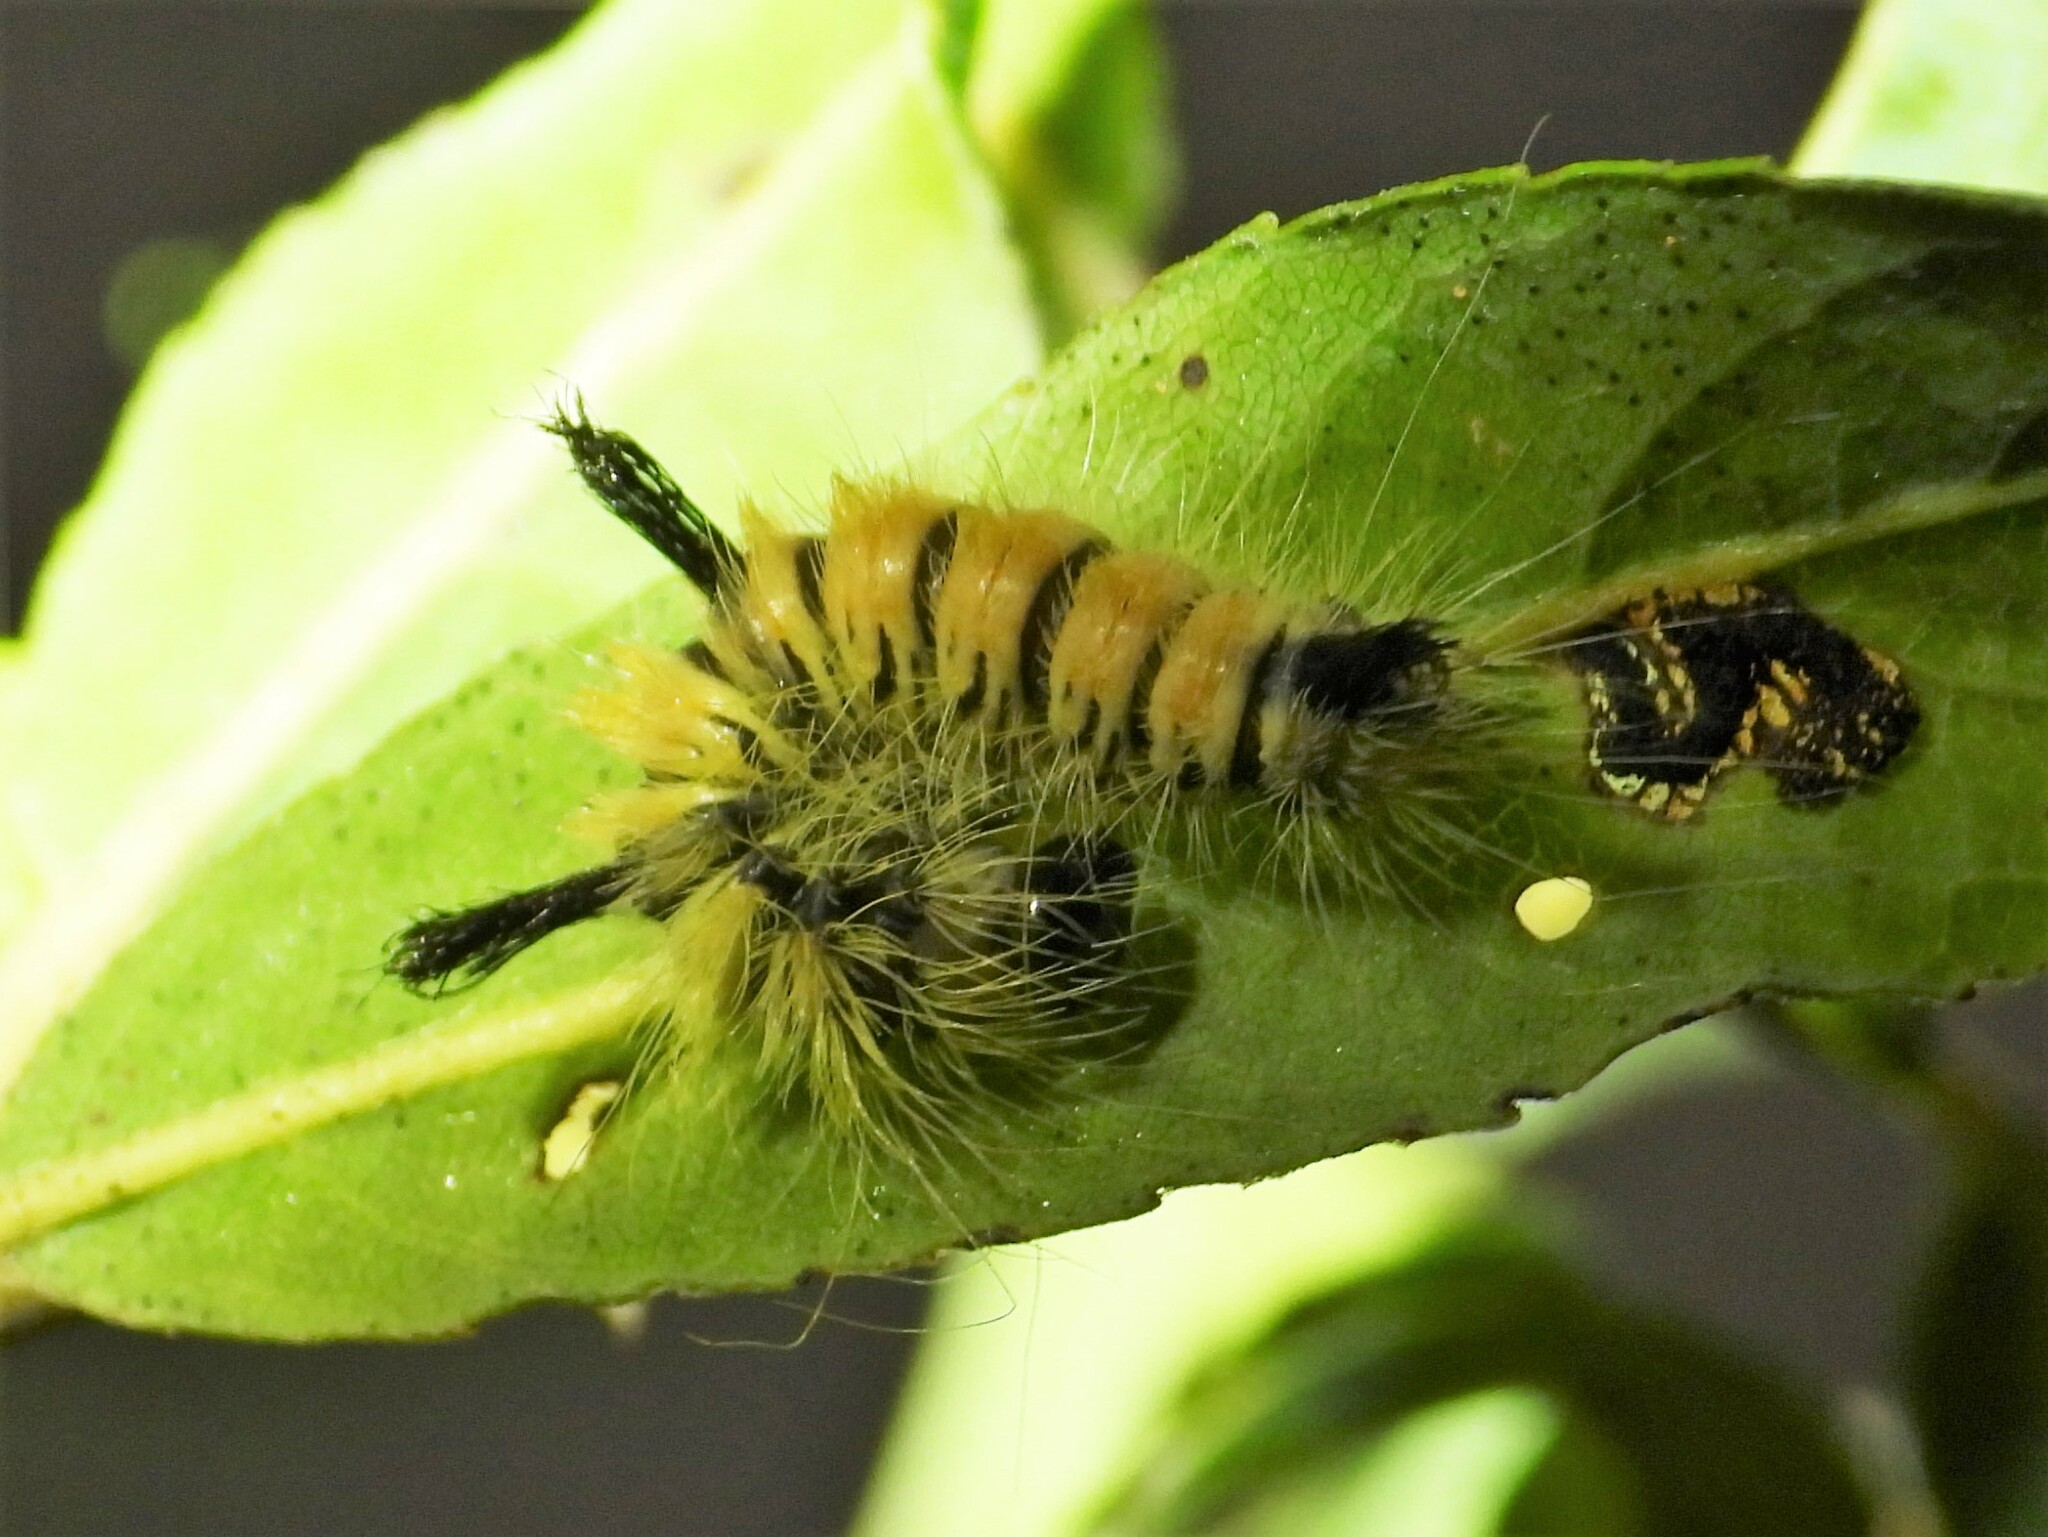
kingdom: Animalia
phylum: Arthropoda
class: Insecta
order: Lepidoptera
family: Noctuidae
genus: Acronicta
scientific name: Acronicta insita
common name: Large gray dagger
